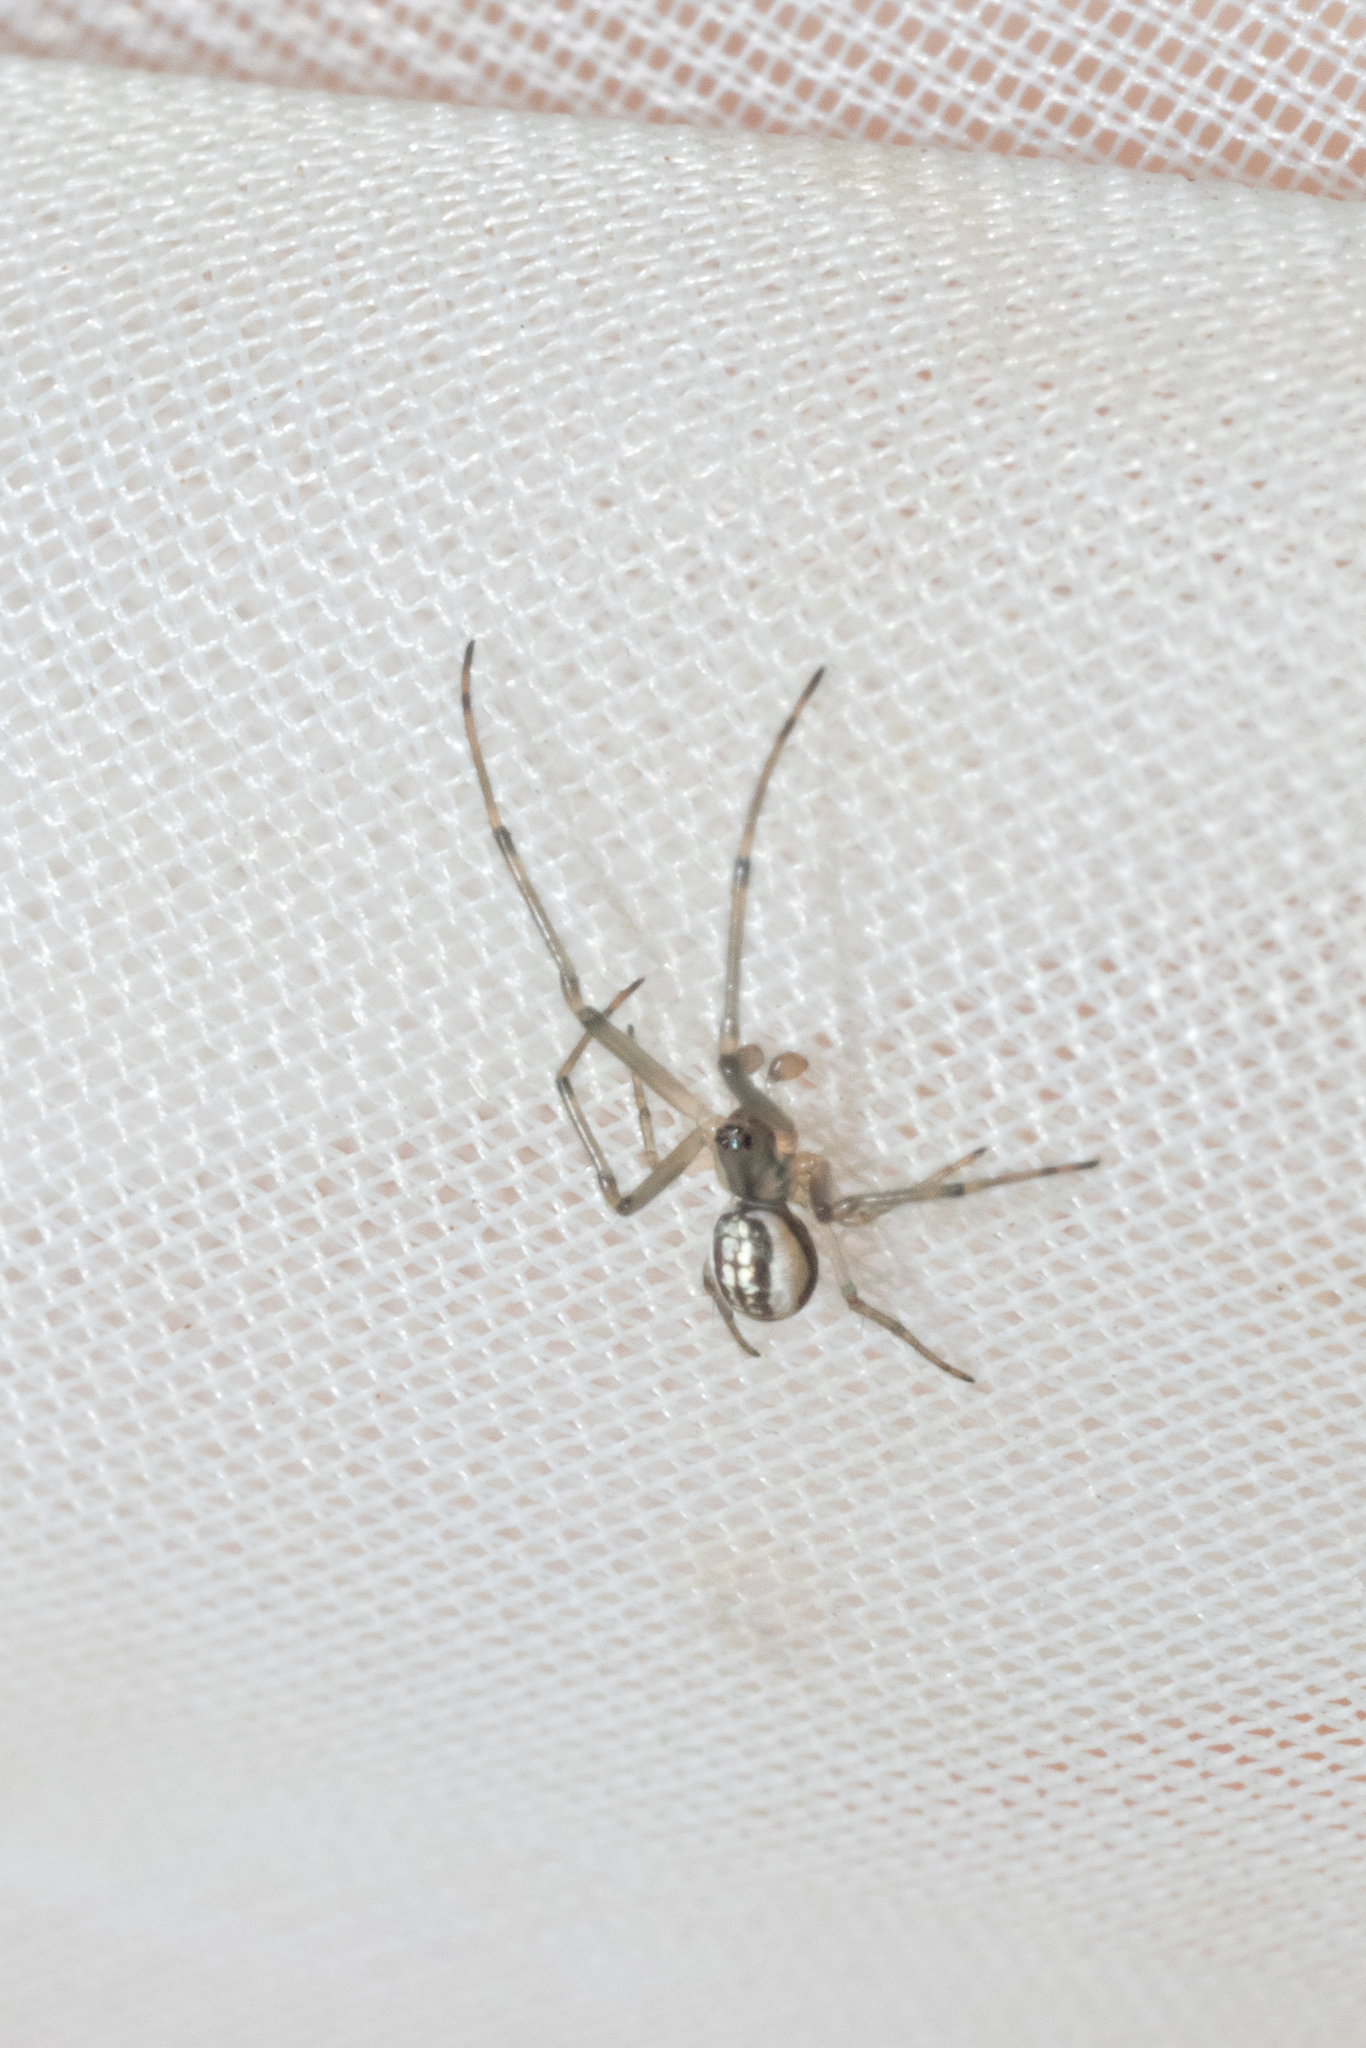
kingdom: Animalia
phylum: Arthropoda
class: Arachnida
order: Araneae
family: Tetragnathidae
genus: Nanometa
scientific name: Nanometa forsteri
